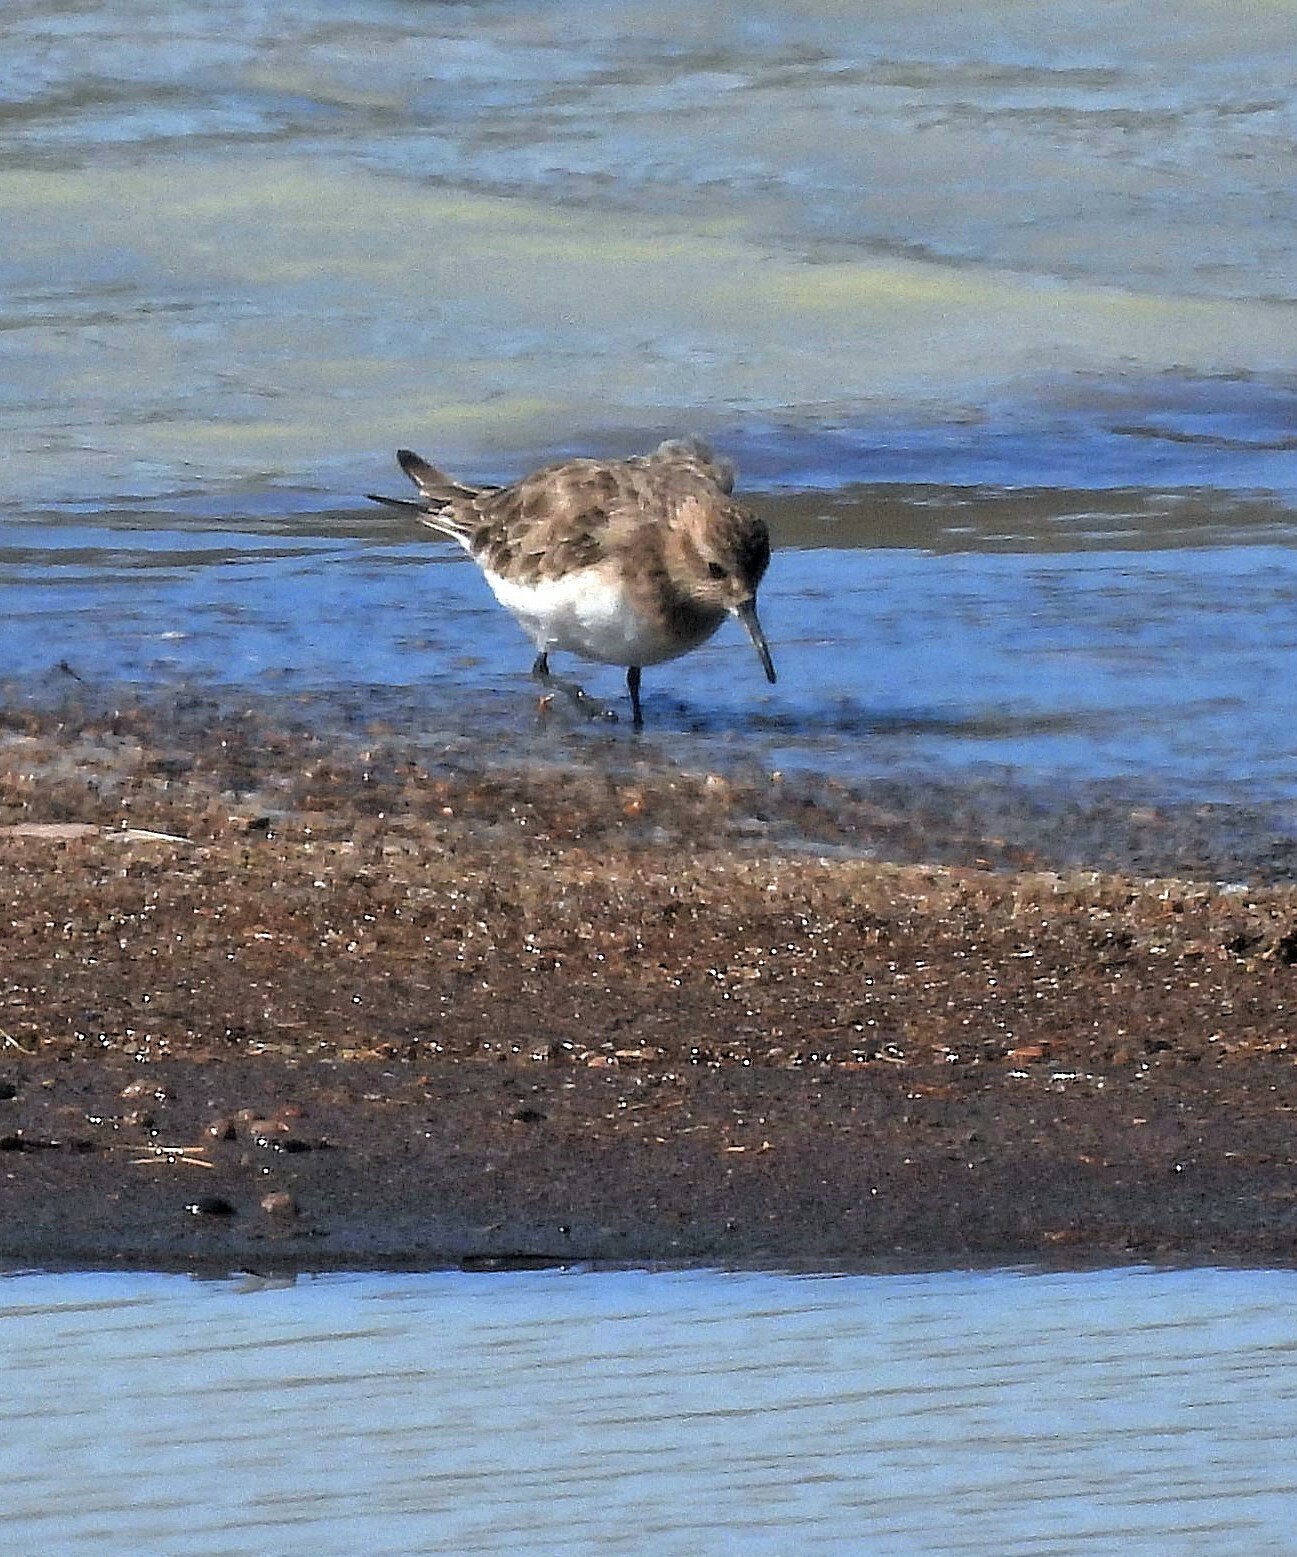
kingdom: Animalia
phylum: Chordata
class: Aves
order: Charadriiformes
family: Scolopacidae
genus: Calidris
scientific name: Calidris bairdii
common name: Baird's sandpiper
